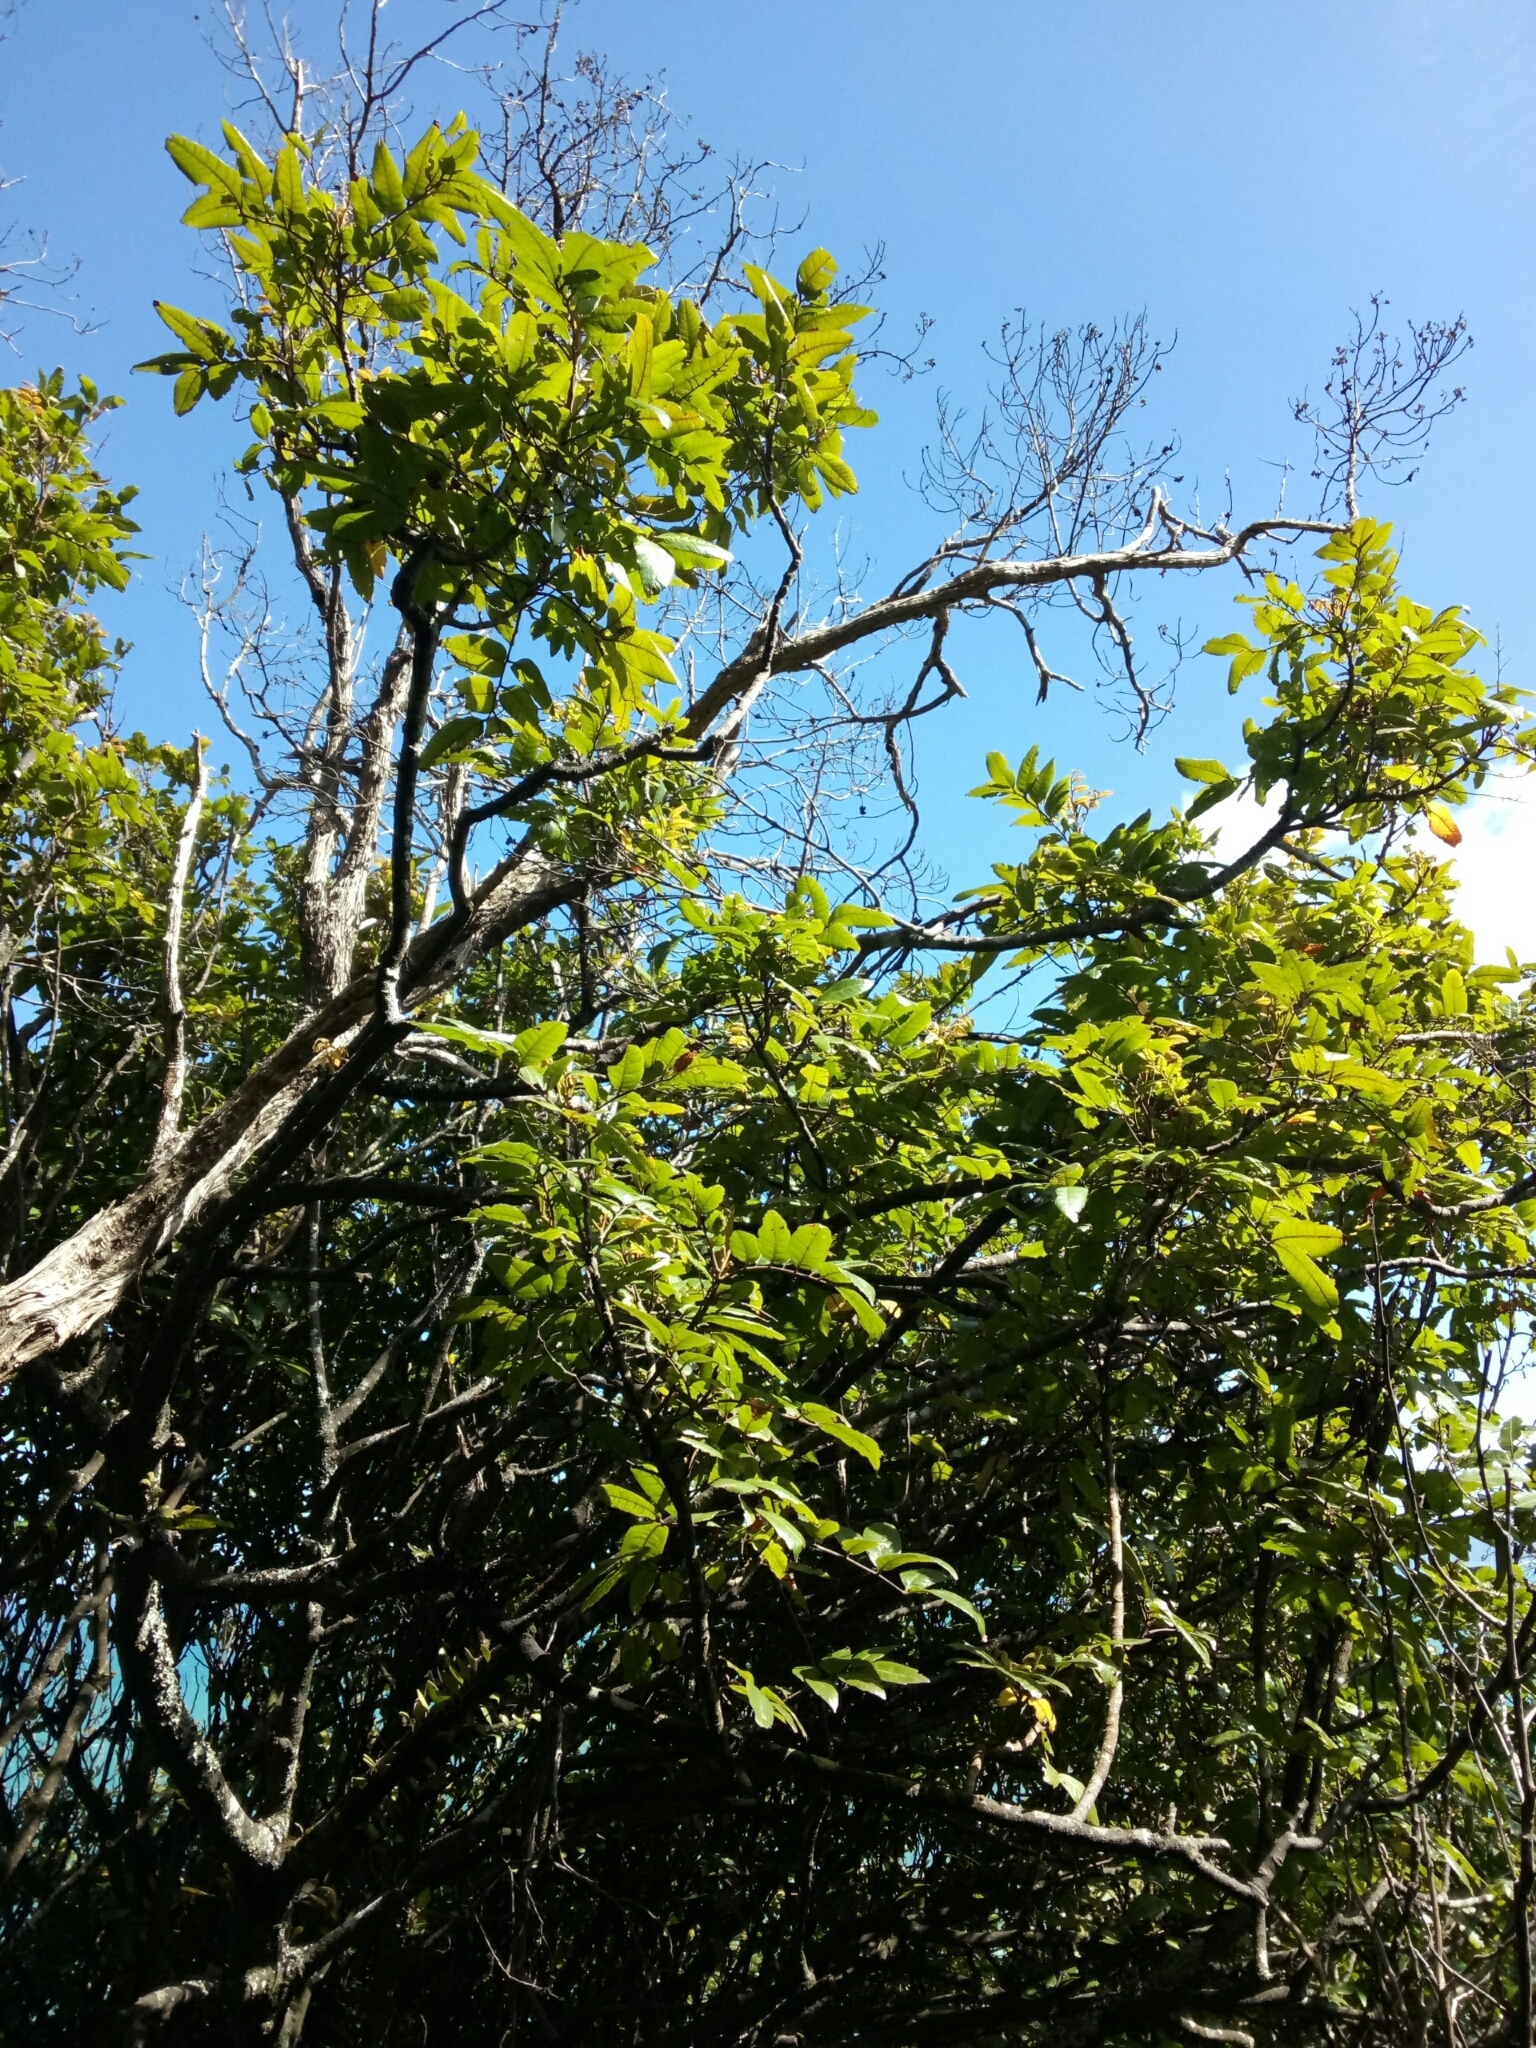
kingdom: Plantae
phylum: Tracheophyta
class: Magnoliopsida
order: Sapindales
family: Sapindaceae
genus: Alectryon
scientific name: Alectryon excelsus
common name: Three kings titoki
